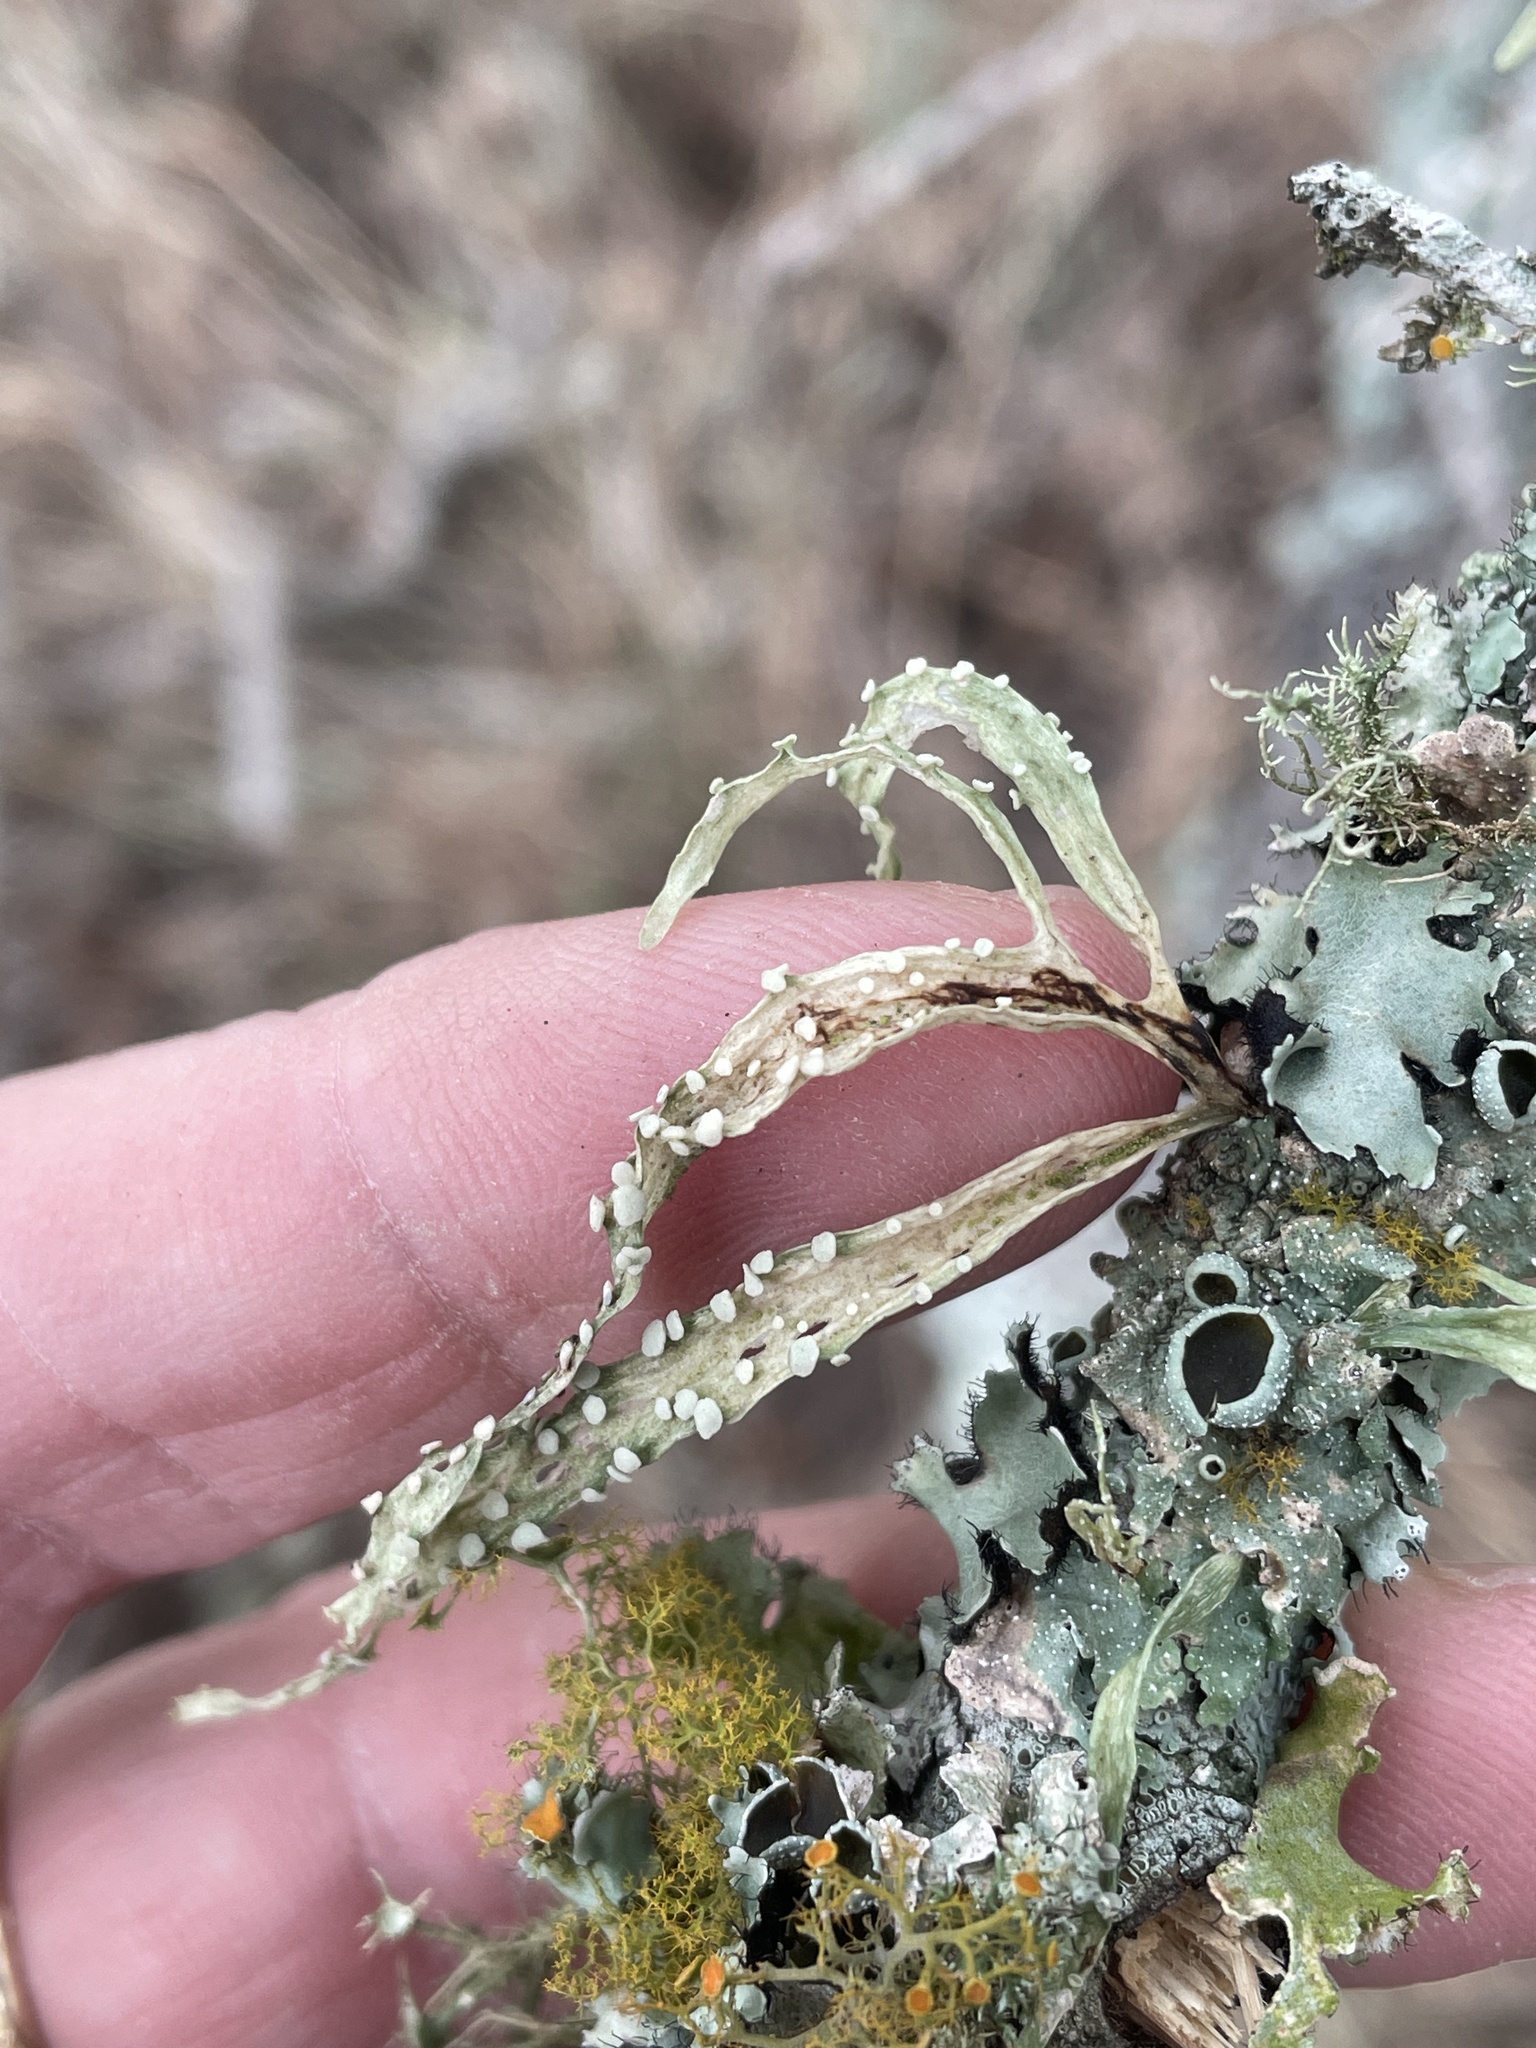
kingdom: Fungi
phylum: Ascomycota
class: Lecanoromycetes
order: Lecanorales
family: Ramalinaceae
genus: Ramalina
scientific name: Ramalina celastri
